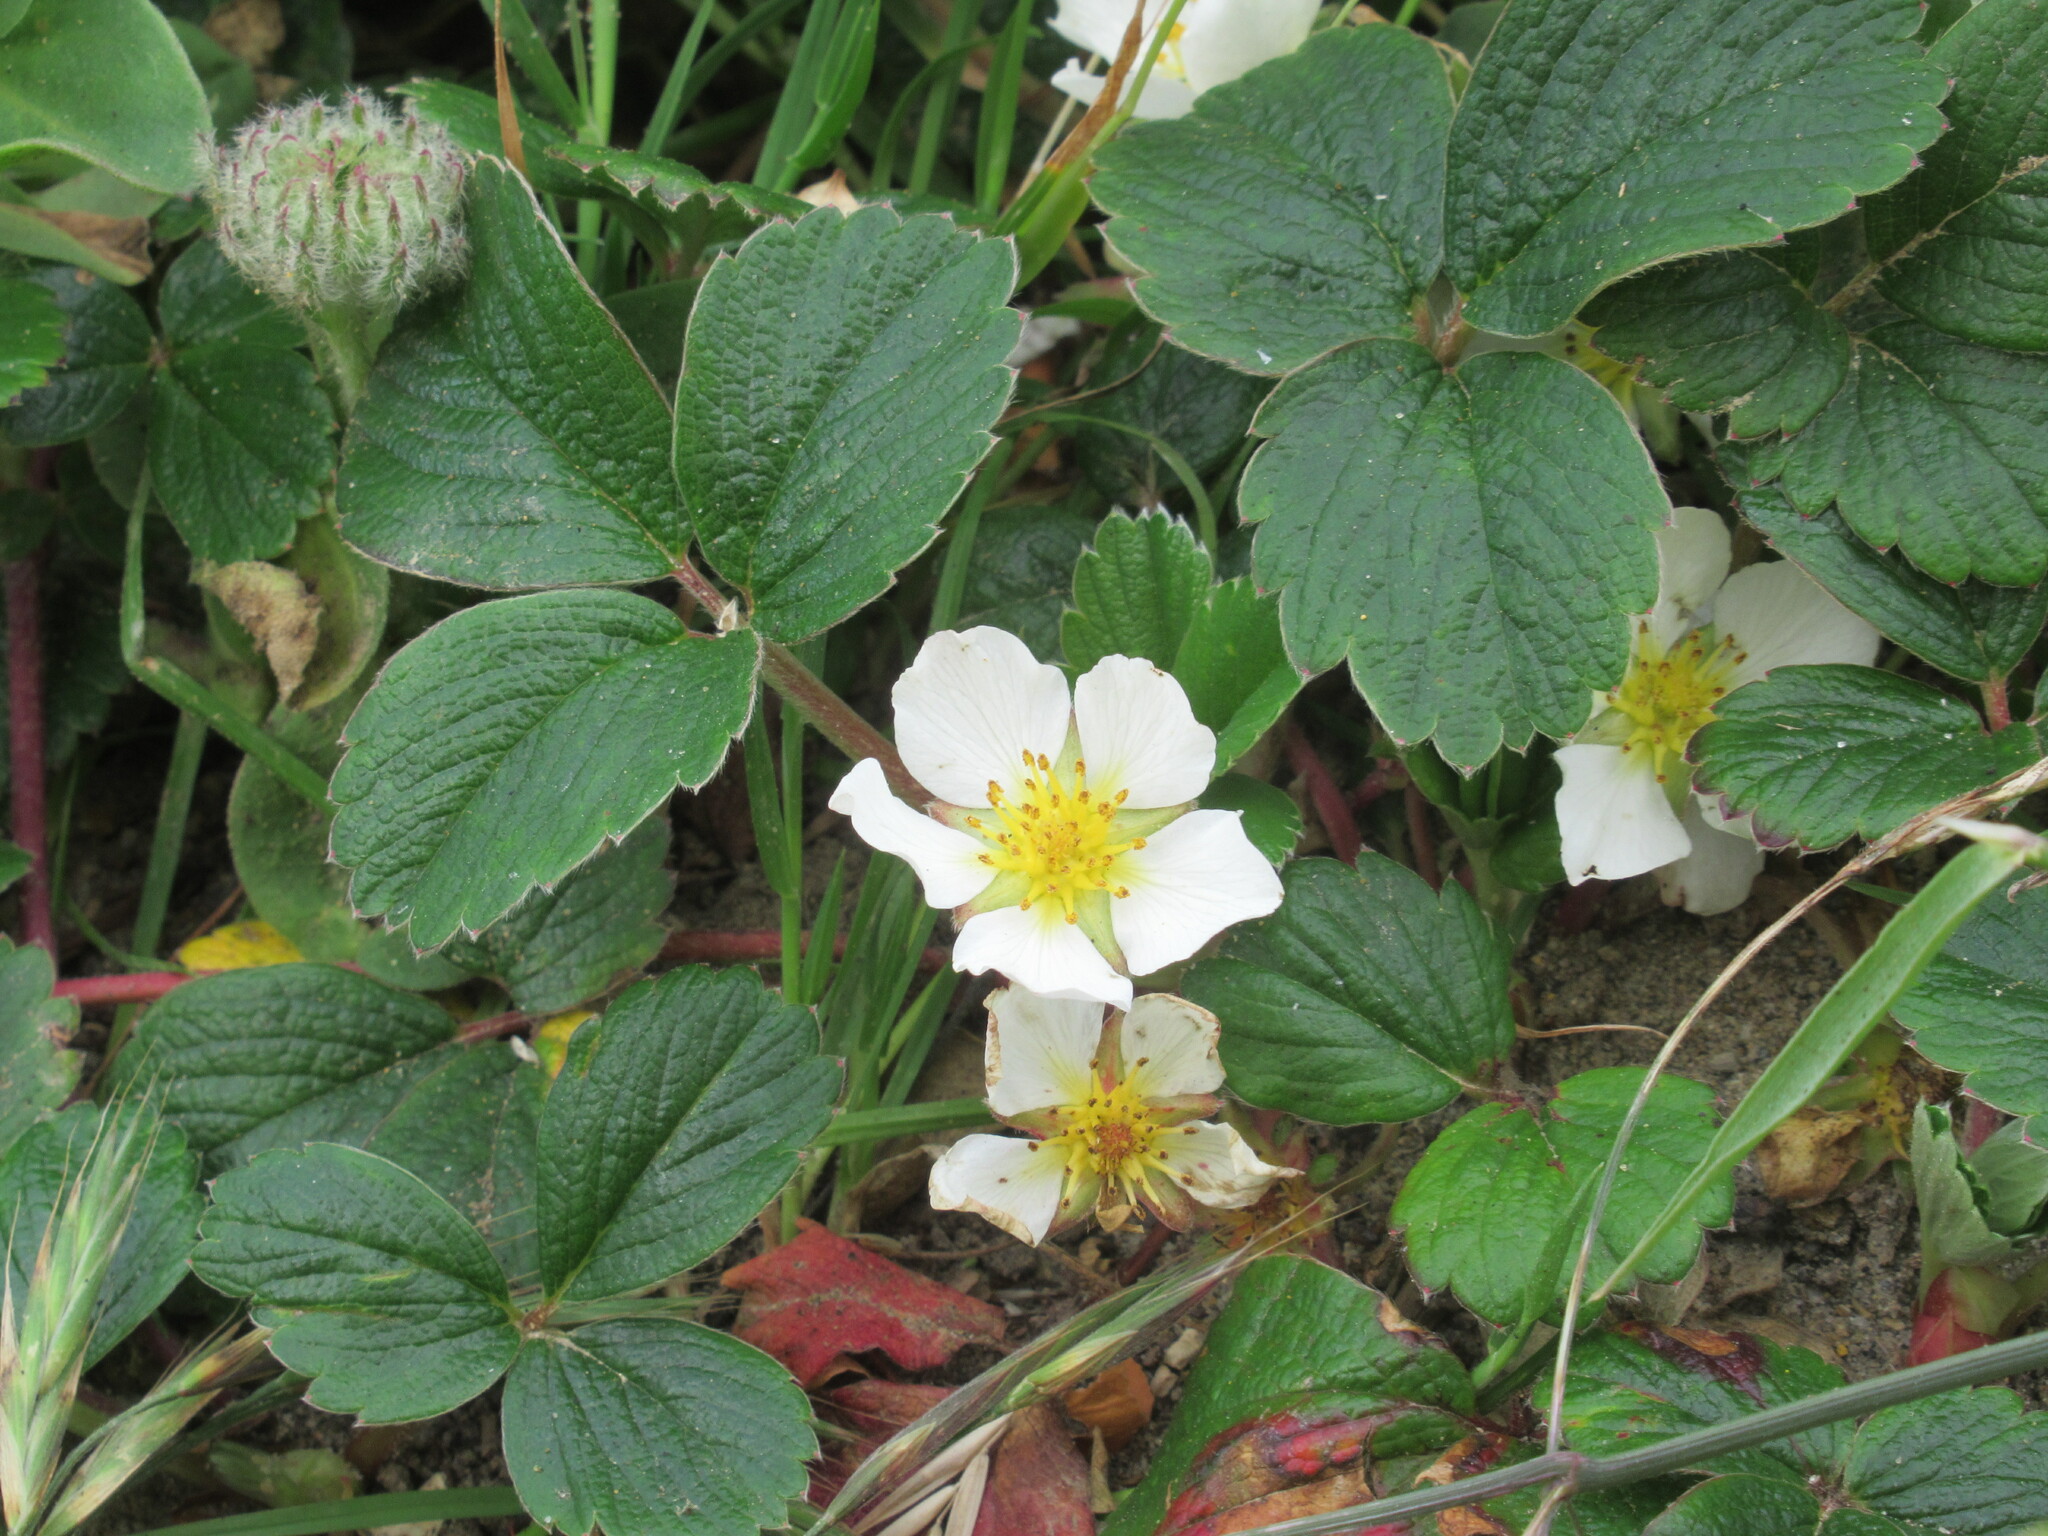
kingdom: Plantae
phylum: Tracheophyta
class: Magnoliopsida
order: Rosales
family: Rosaceae
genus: Fragaria
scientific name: Fragaria chiloensis
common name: Beach strawberry
